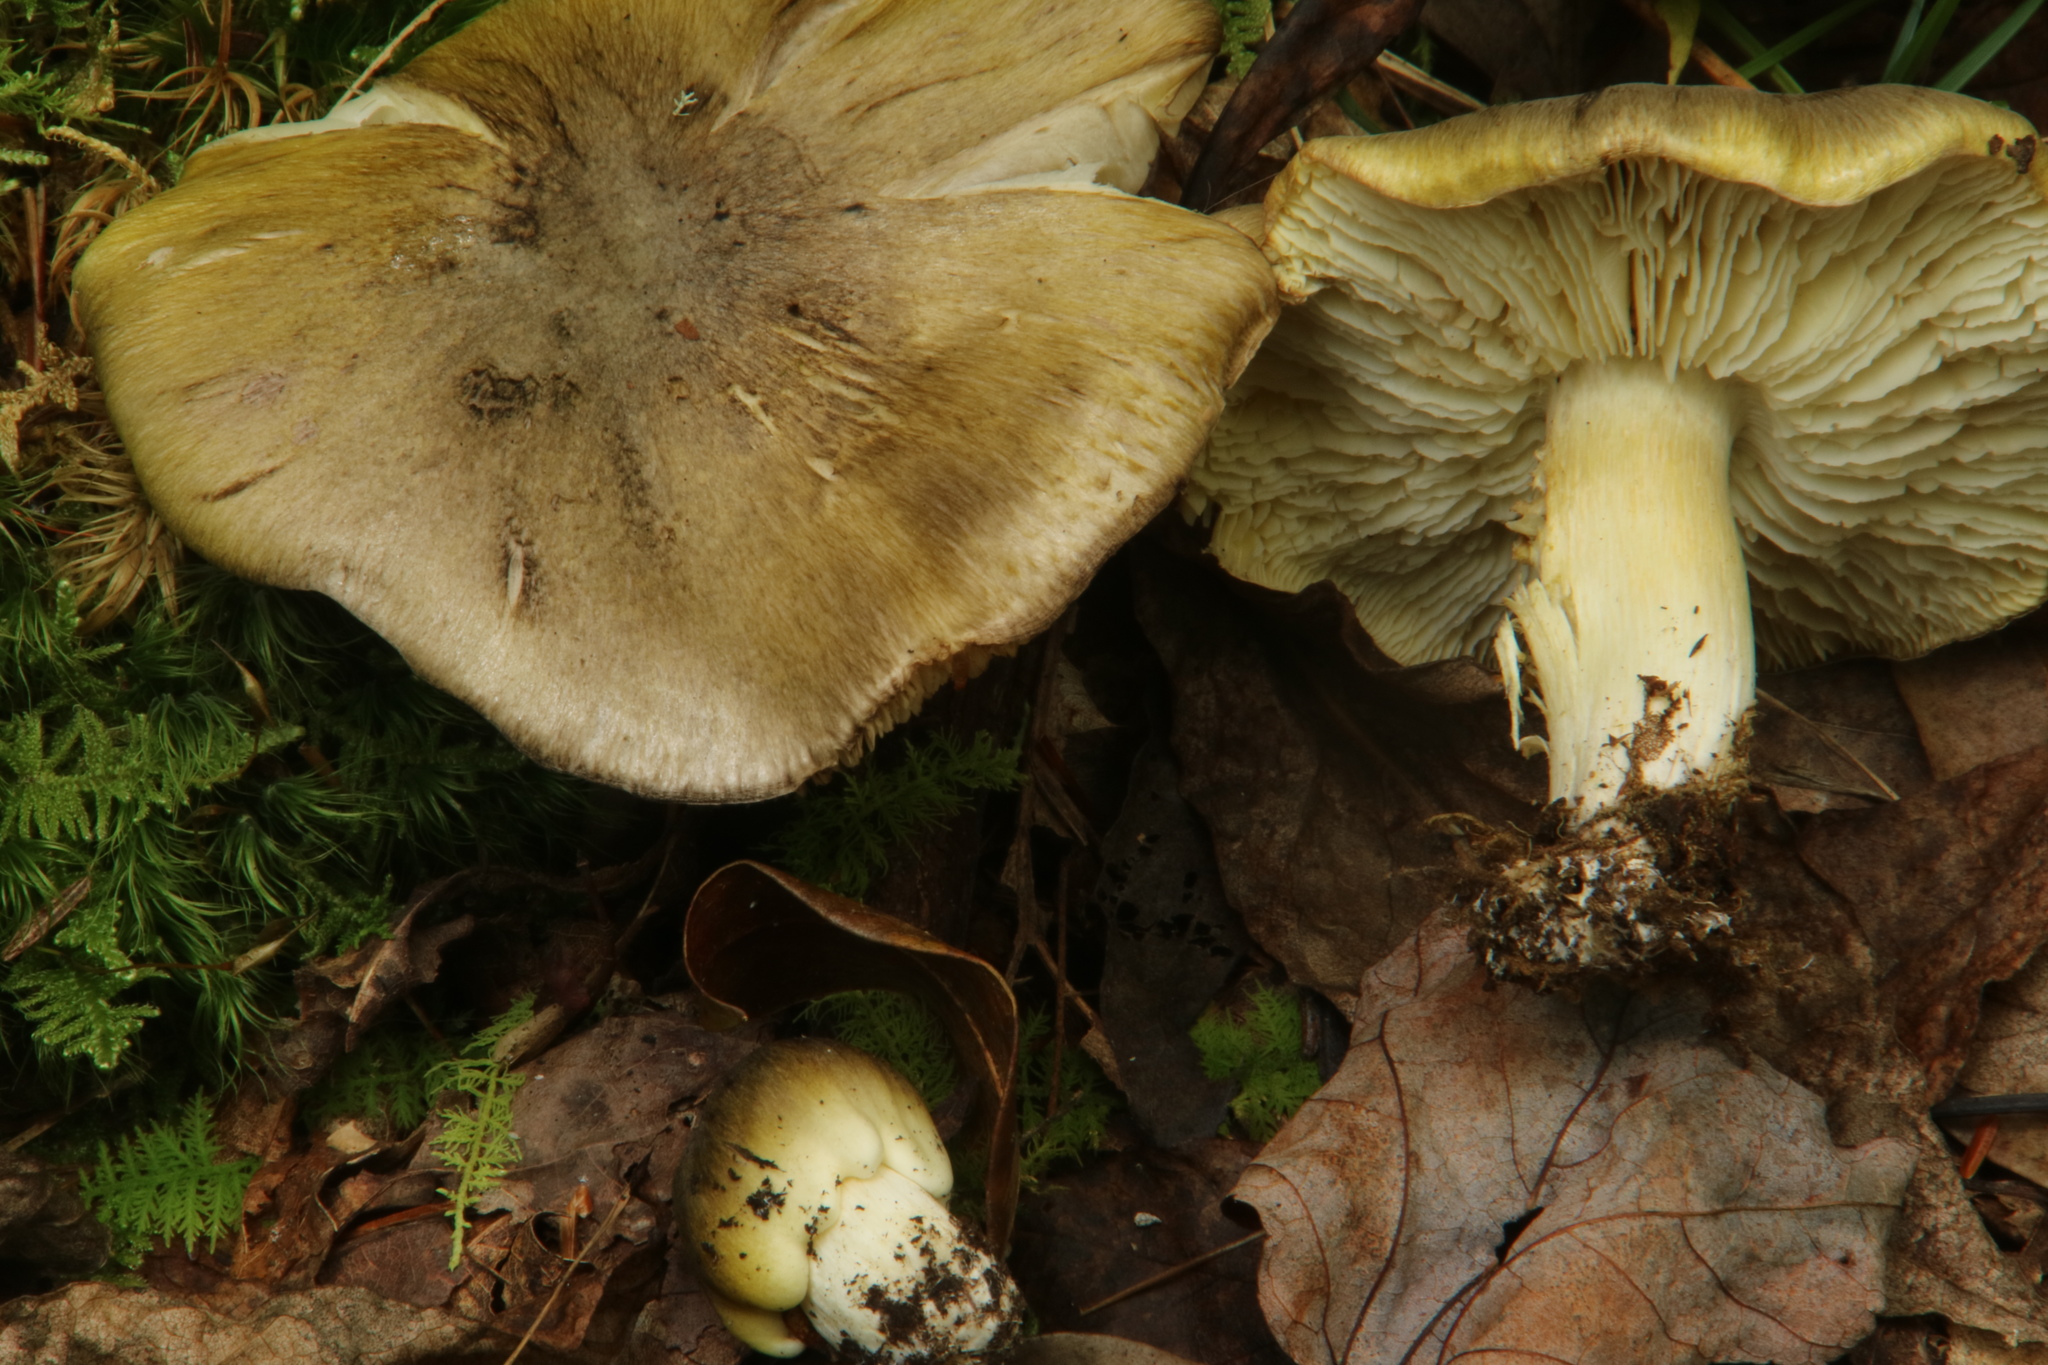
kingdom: Fungi
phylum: Basidiomycota
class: Agaricomycetes
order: Agaricales
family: Tricholomataceae
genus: Tricholoma
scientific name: Tricholoma sejunctum
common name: Deceiving knight
